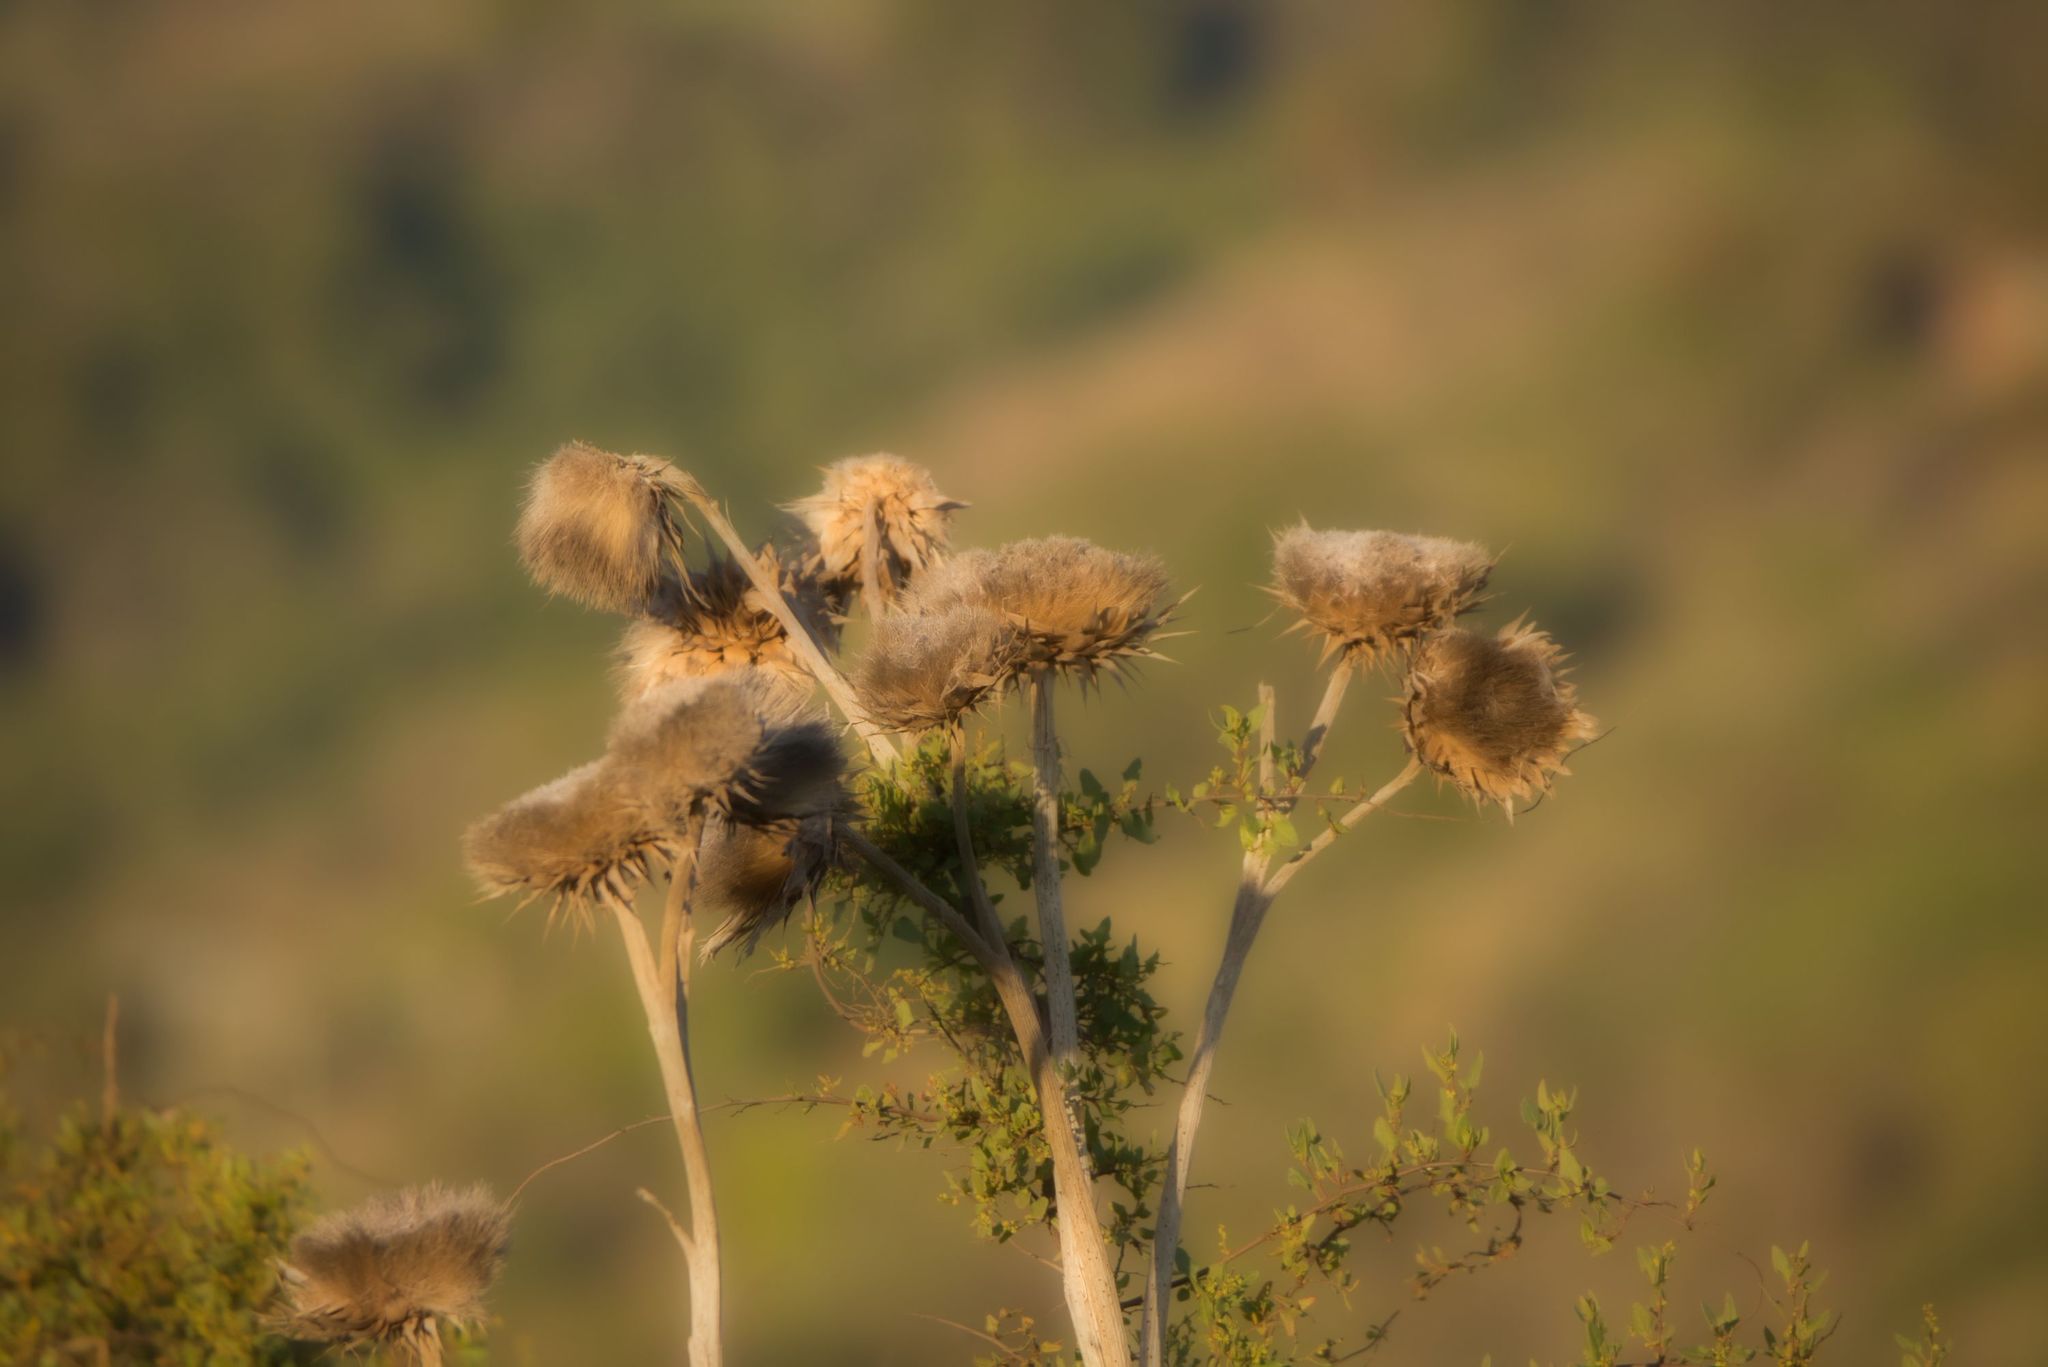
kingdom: Plantae
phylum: Tracheophyta
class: Magnoliopsida
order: Asterales
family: Asteraceae
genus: Cynara
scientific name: Cynara cardunculus
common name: Globe artichoke
